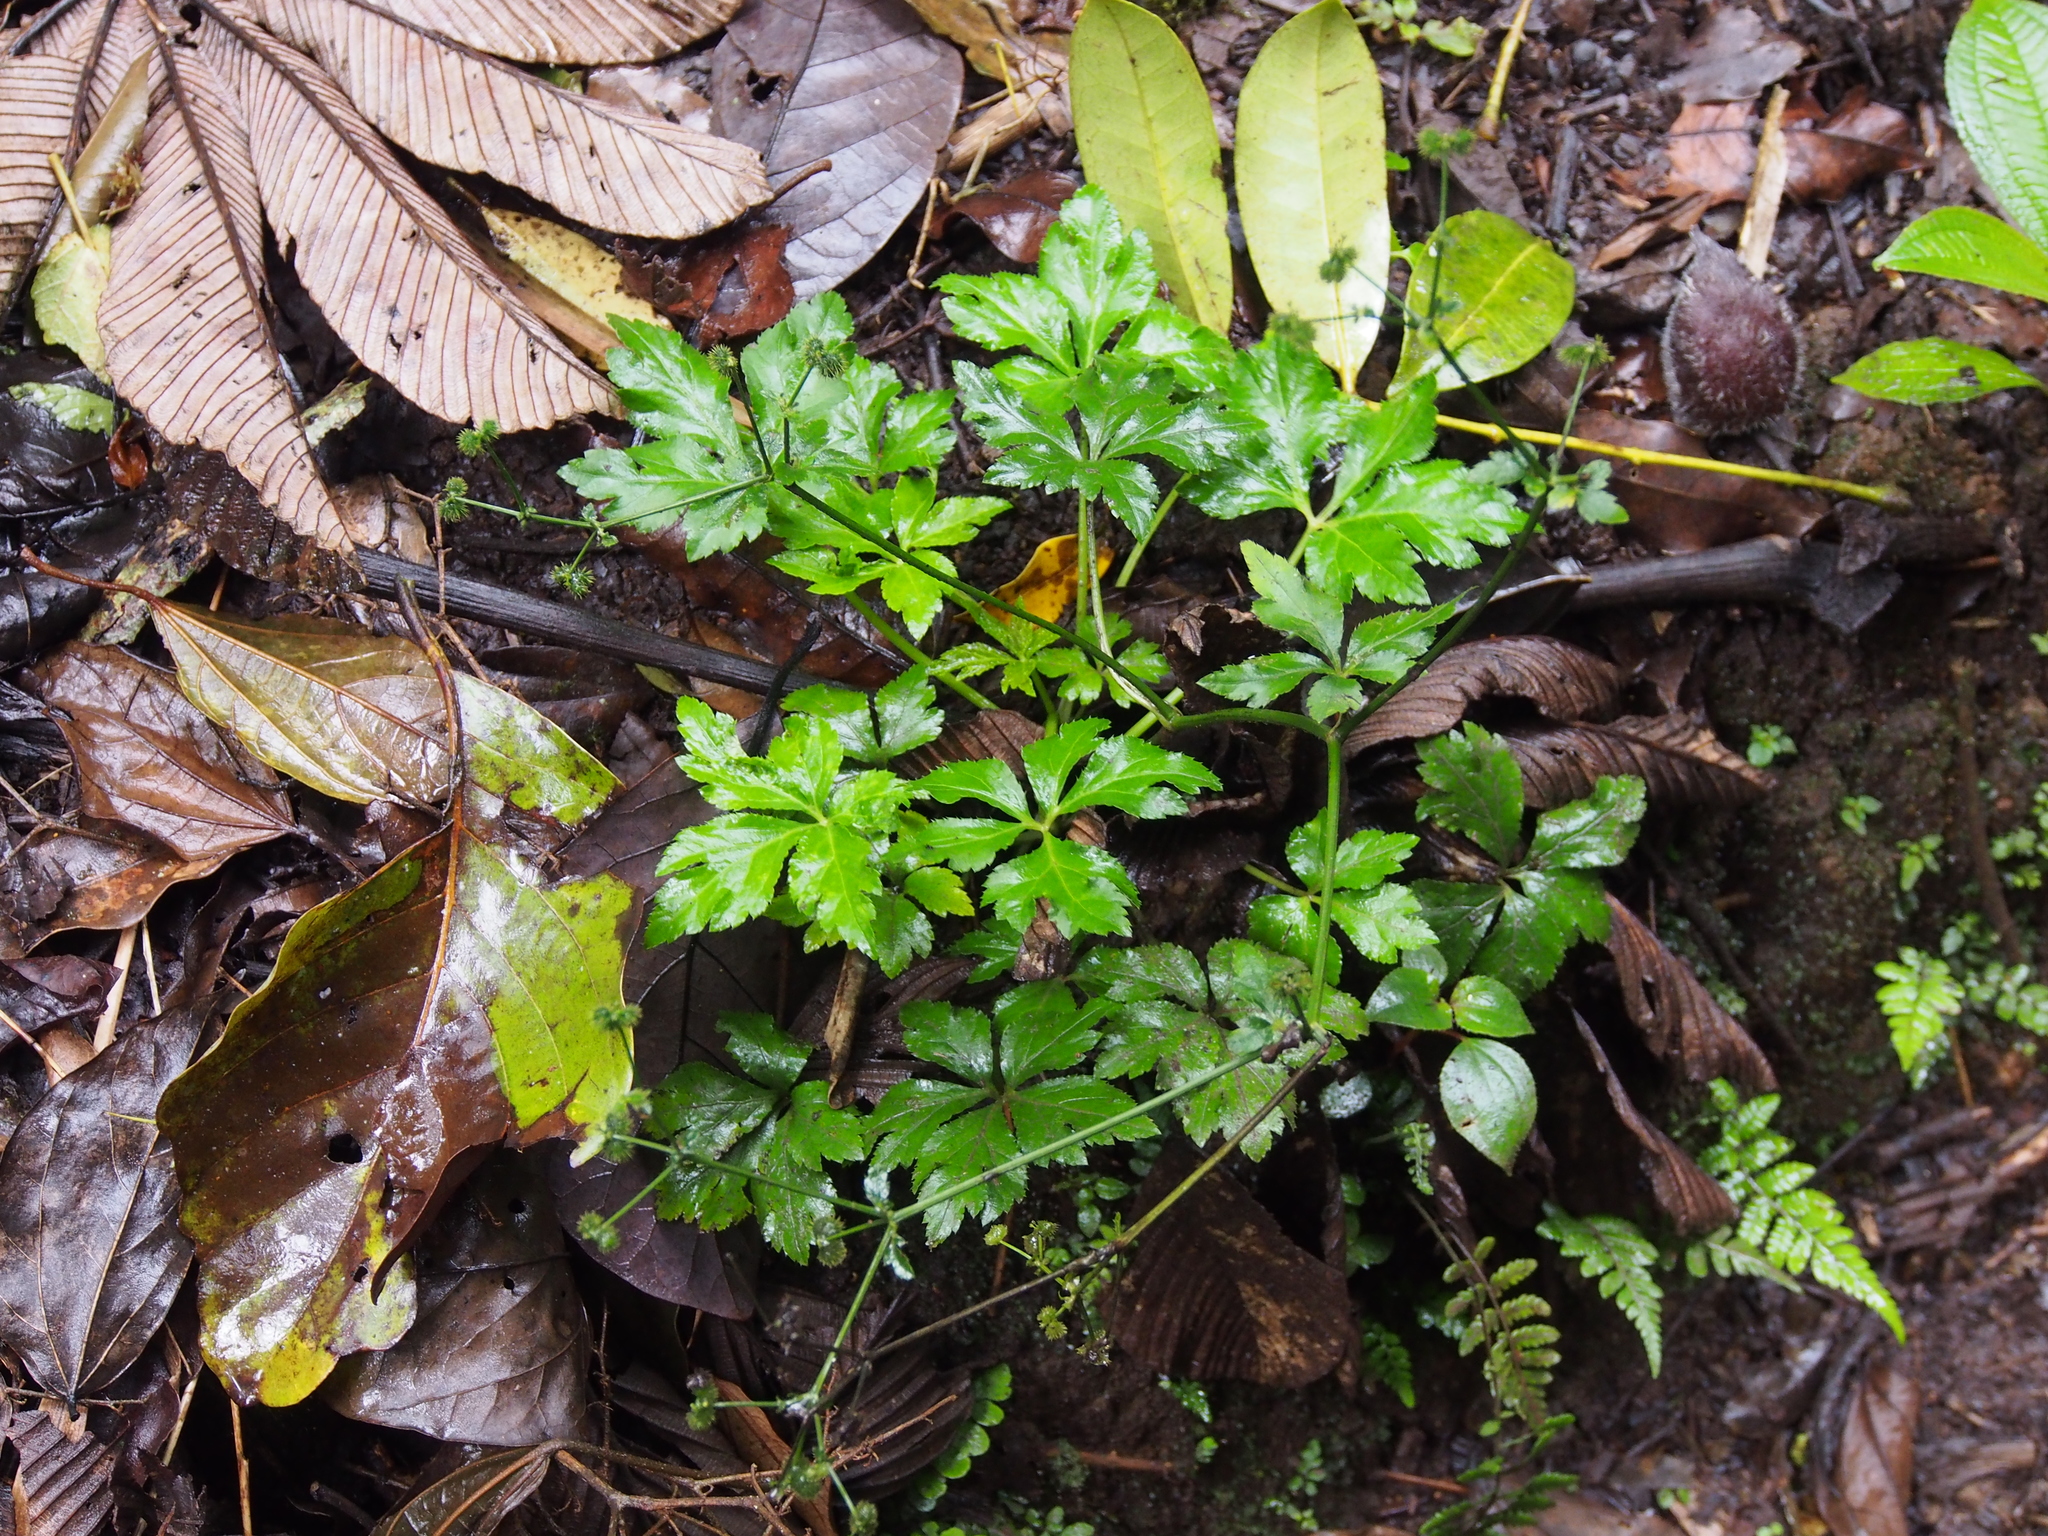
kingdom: Plantae
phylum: Tracheophyta
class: Magnoliopsida
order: Apiales
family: Apiaceae
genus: Sanicula
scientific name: Sanicula liberta
